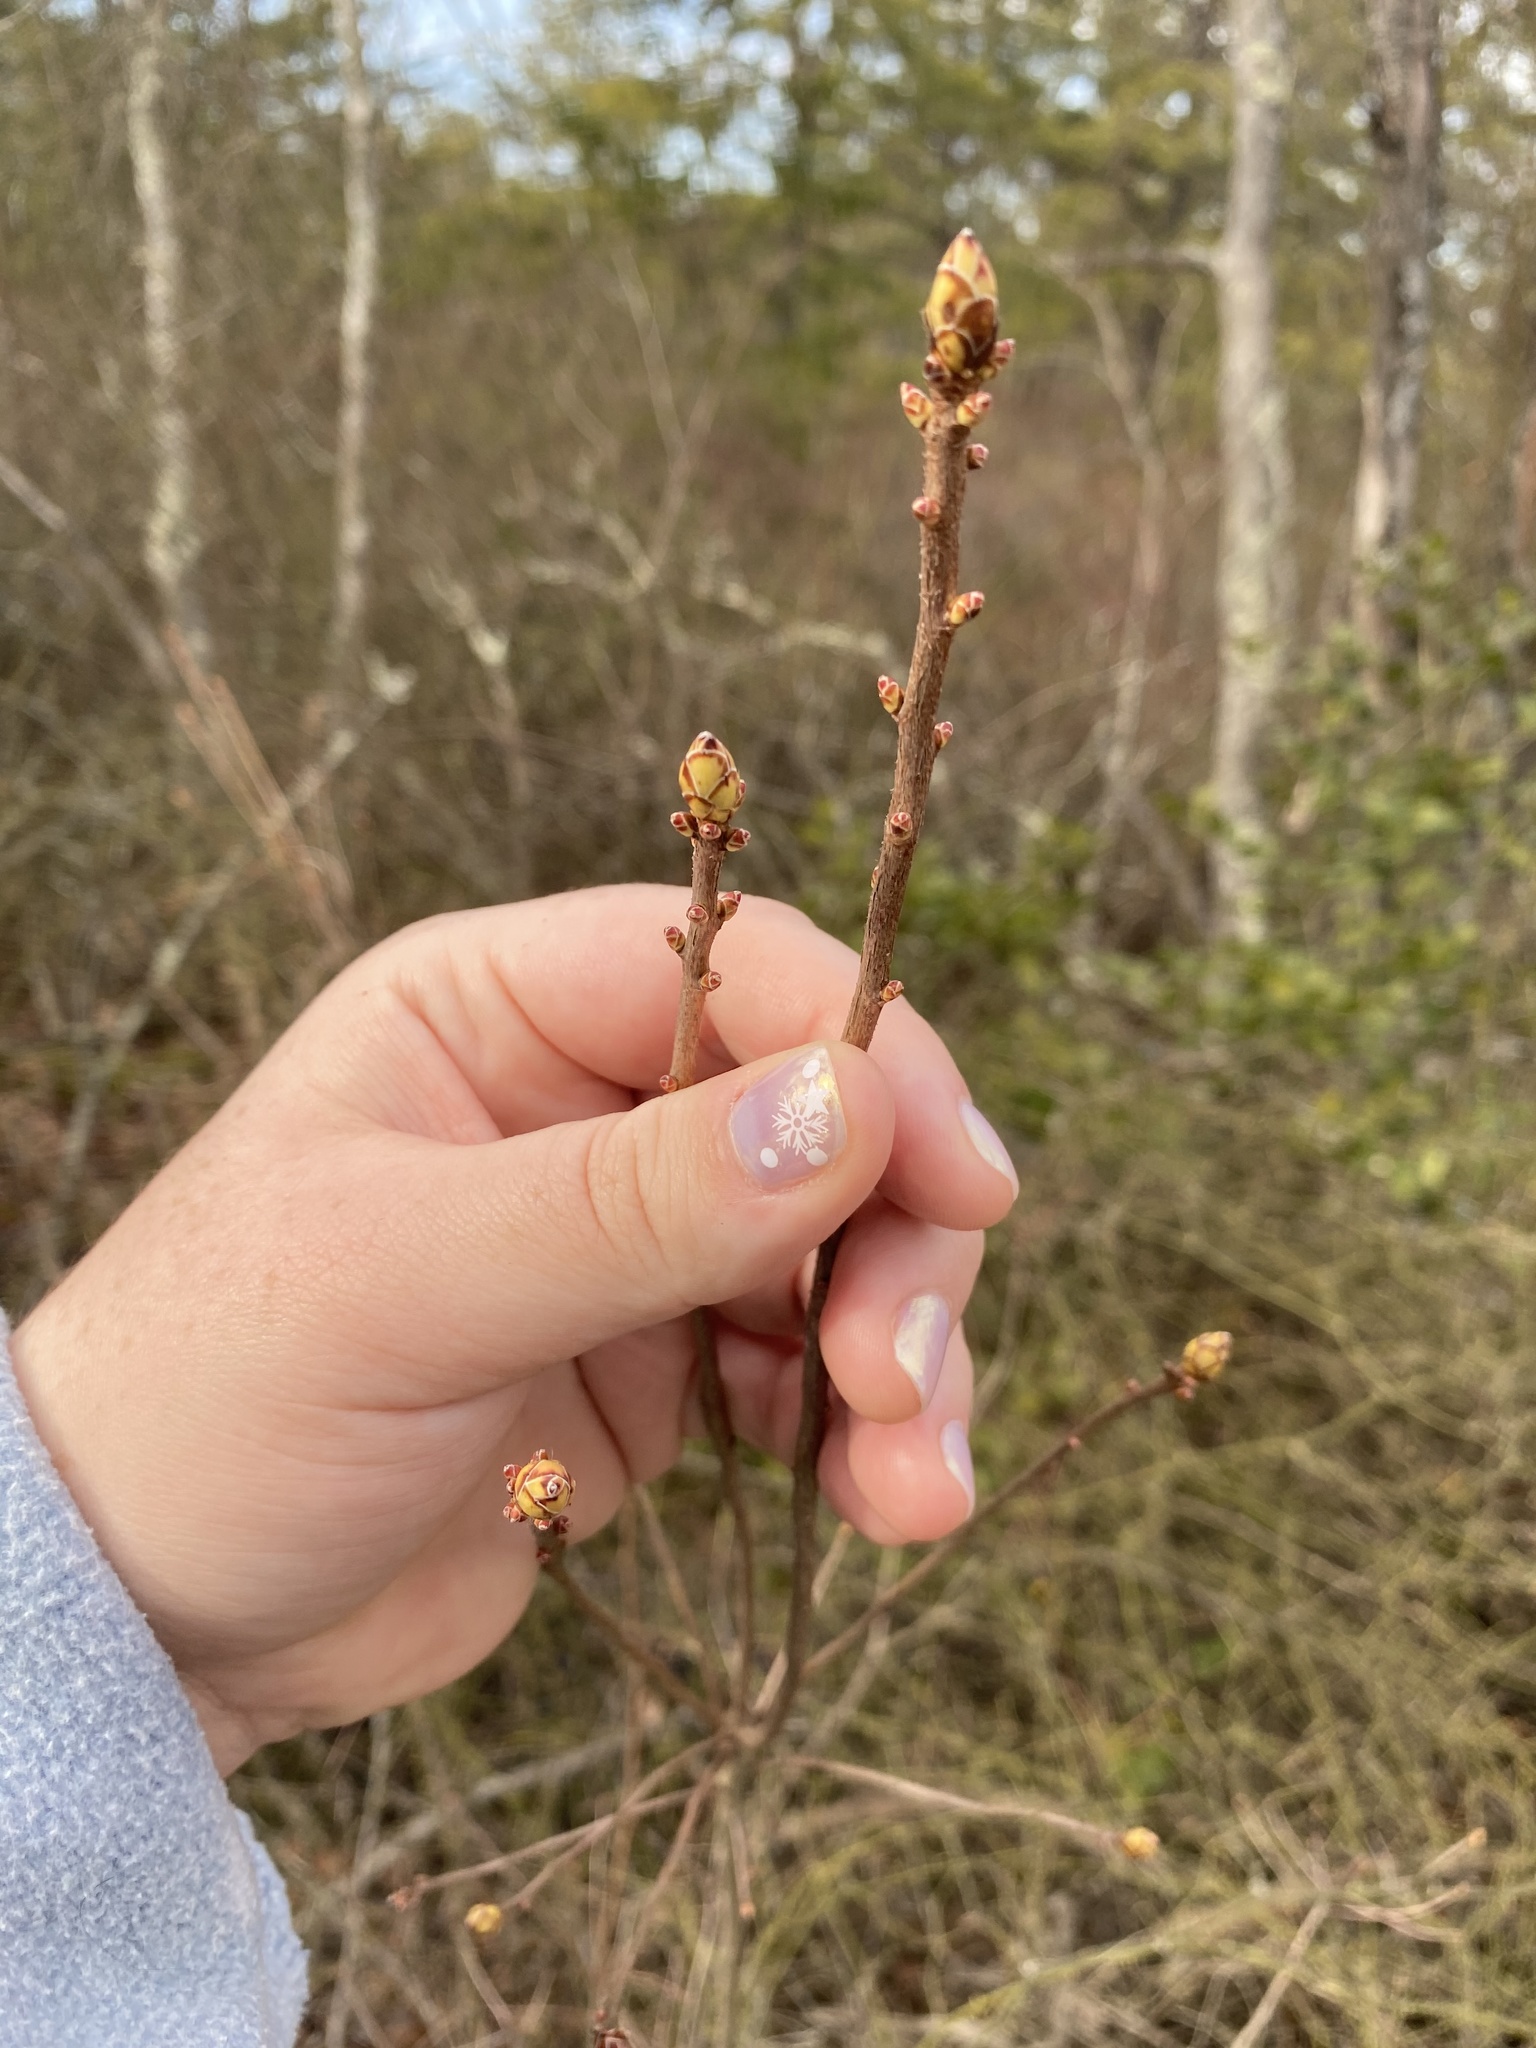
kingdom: Plantae
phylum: Tracheophyta
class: Magnoliopsida
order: Ericales
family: Ericaceae
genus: Rhododendron
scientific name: Rhododendron viscosum
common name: Clammy azalea
